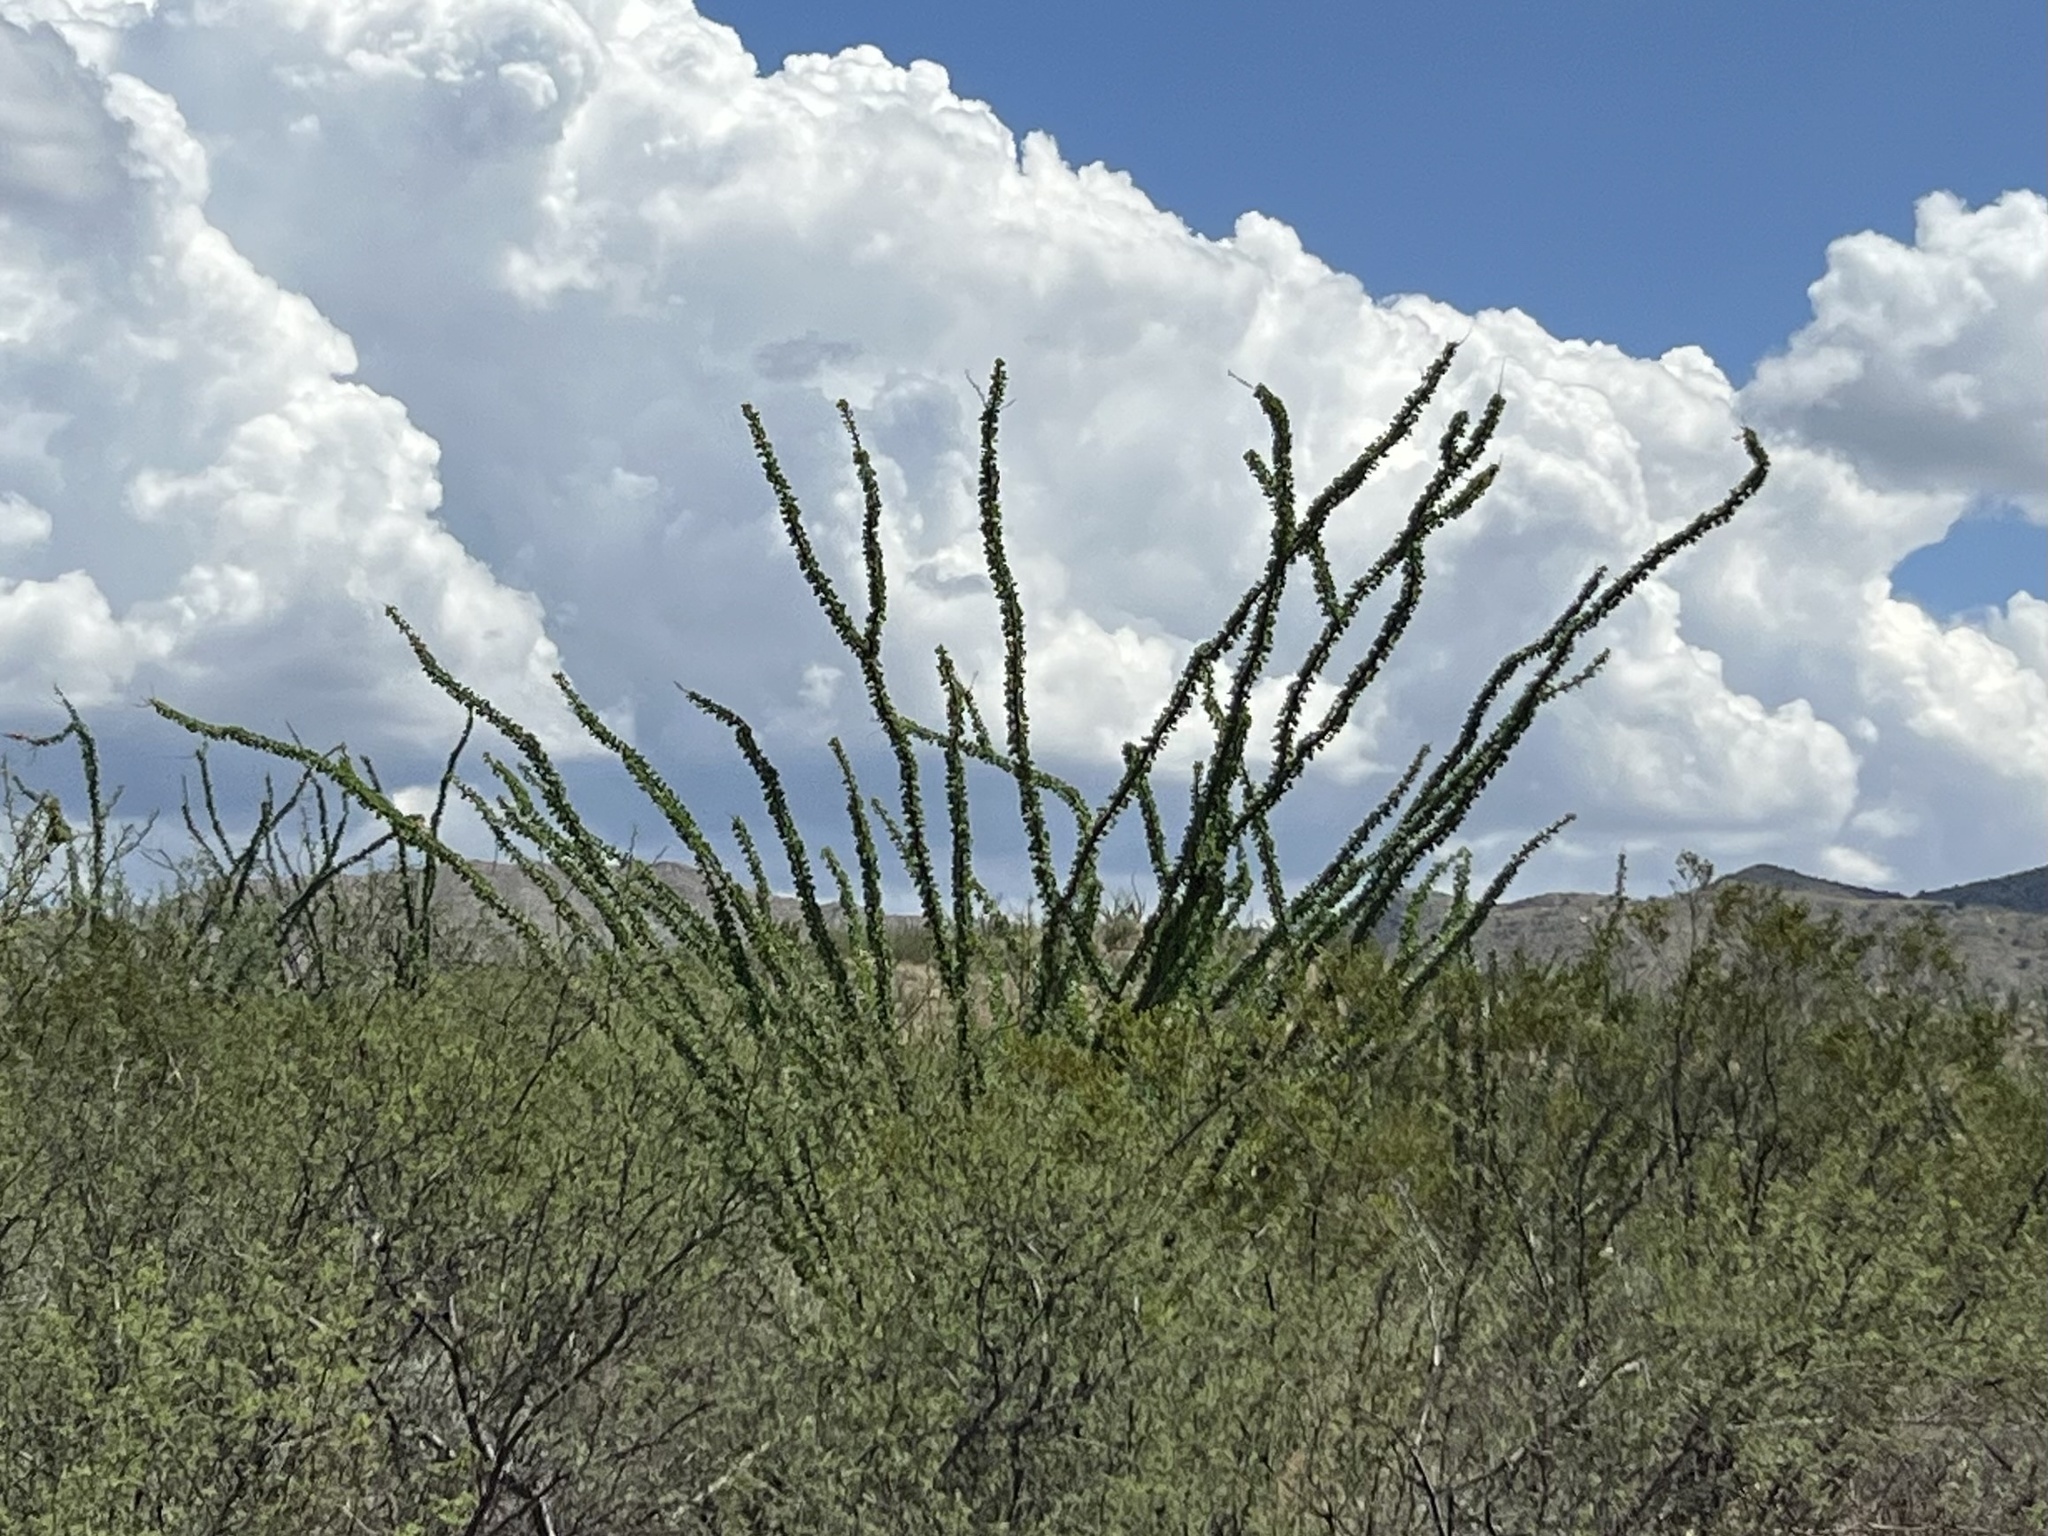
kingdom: Plantae
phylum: Tracheophyta
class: Magnoliopsida
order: Ericales
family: Fouquieriaceae
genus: Fouquieria
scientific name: Fouquieria splendens
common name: Vine-cactus
